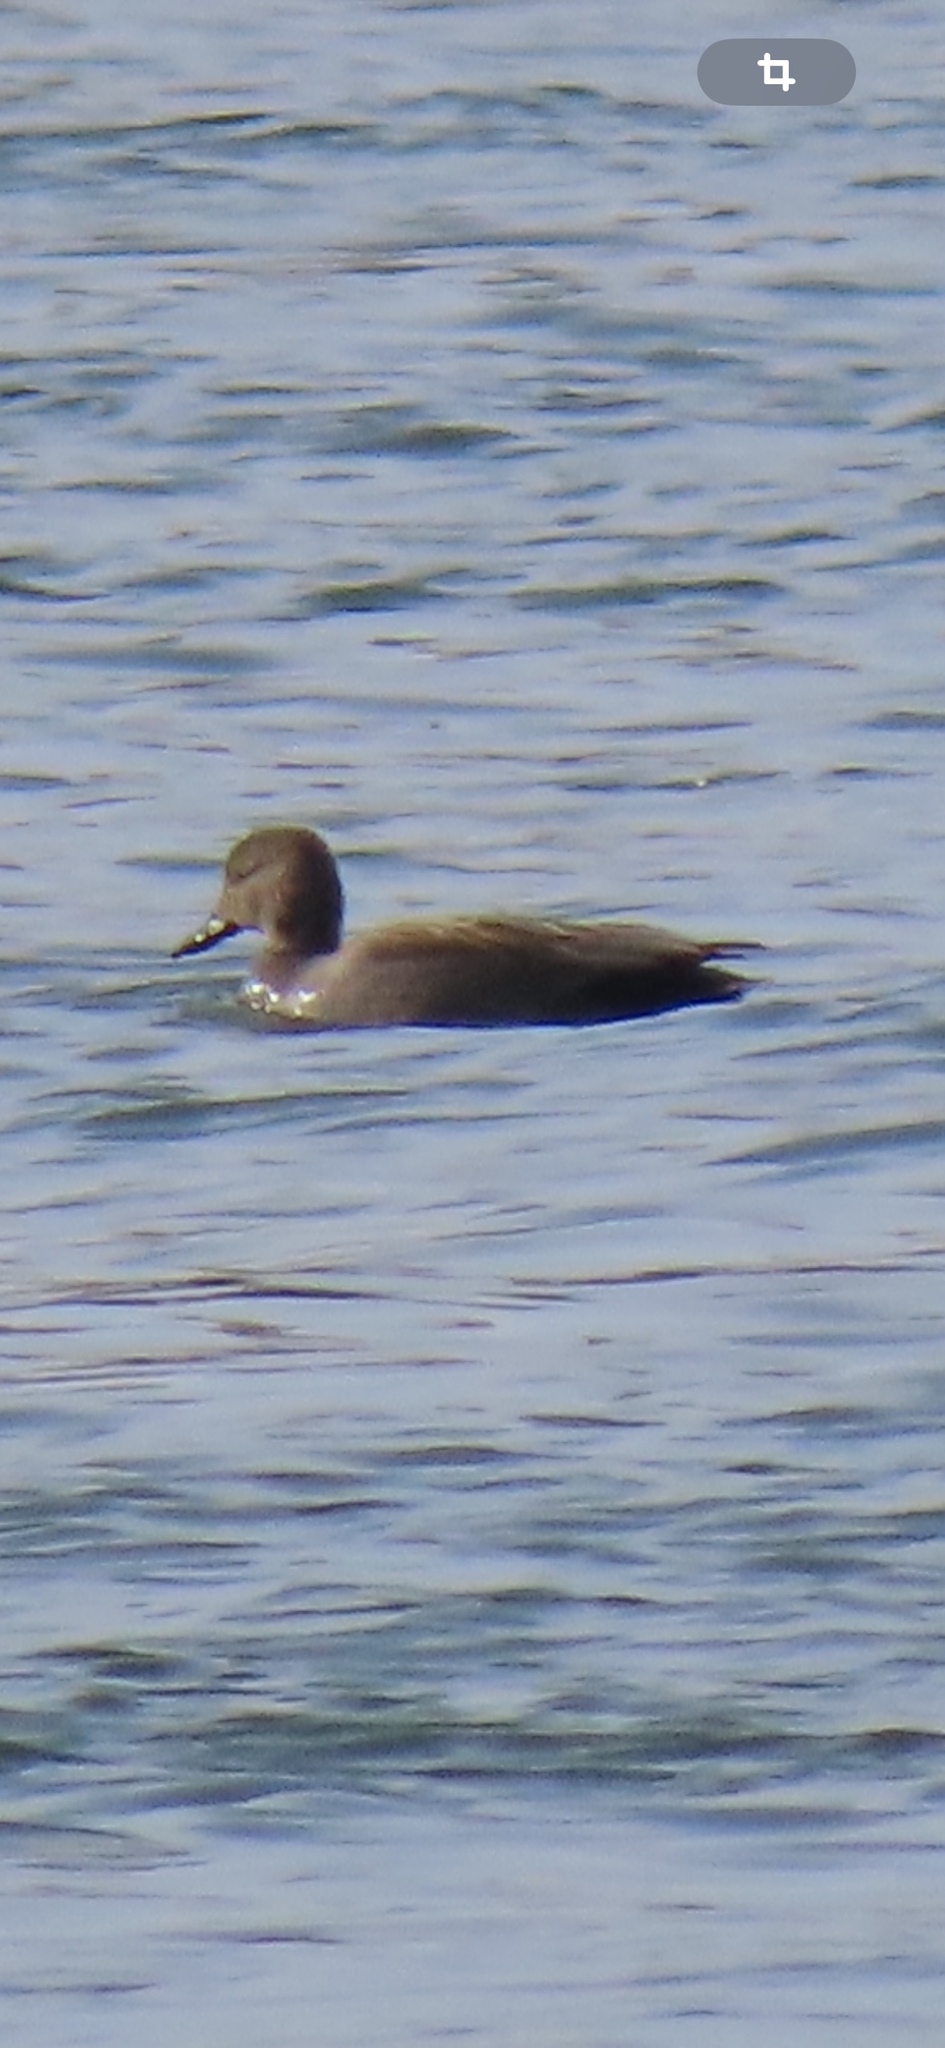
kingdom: Animalia
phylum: Chordata
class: Aves
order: Anseriformes
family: Anatidae
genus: Mareca
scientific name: Mareca strepera
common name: Gadwall
